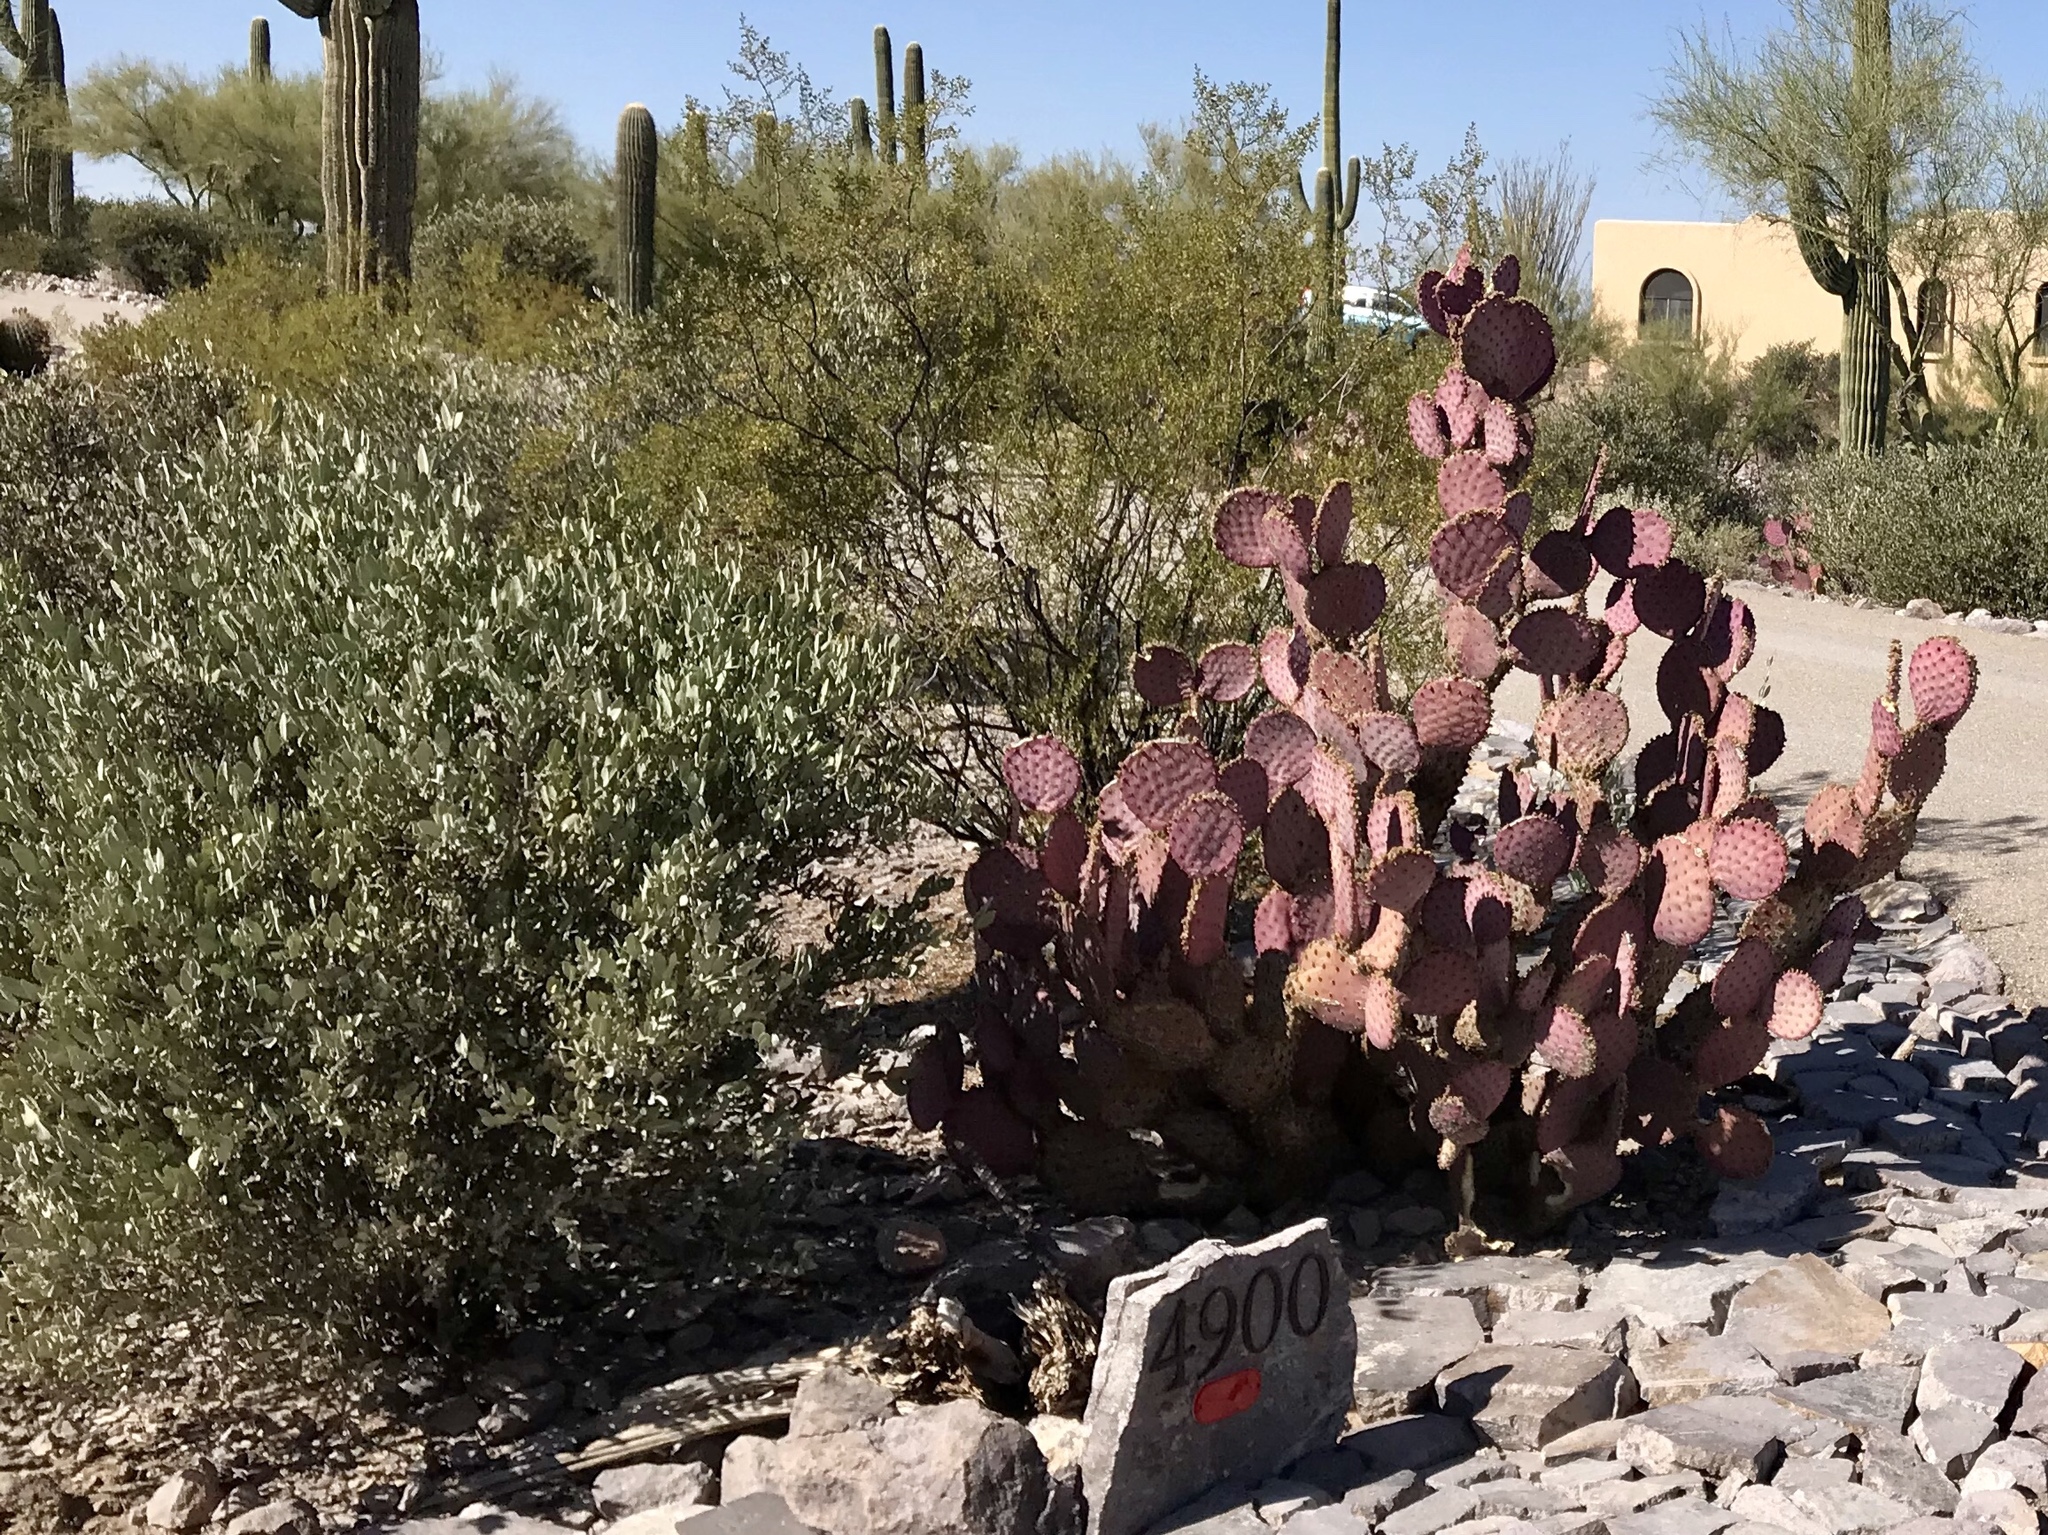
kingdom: Plantae
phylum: Tracheophyta
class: Magnoliopsida
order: Caryophyllales
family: Simmondsiaceae
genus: Simmondsia
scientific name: Simmondsia chinensis
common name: Jojoba
